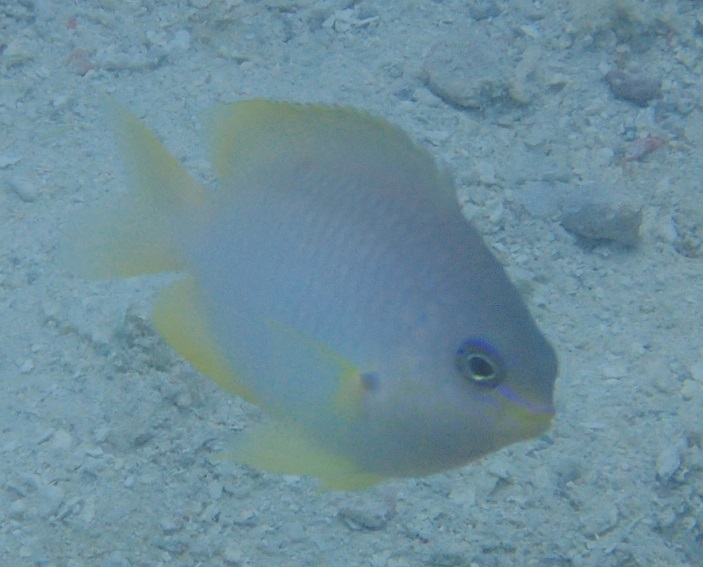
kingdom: Animalia
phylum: Chordata
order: Perciformes
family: Pomacentridae
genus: Pomacentrus
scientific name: Pomacentrus amboinensis
